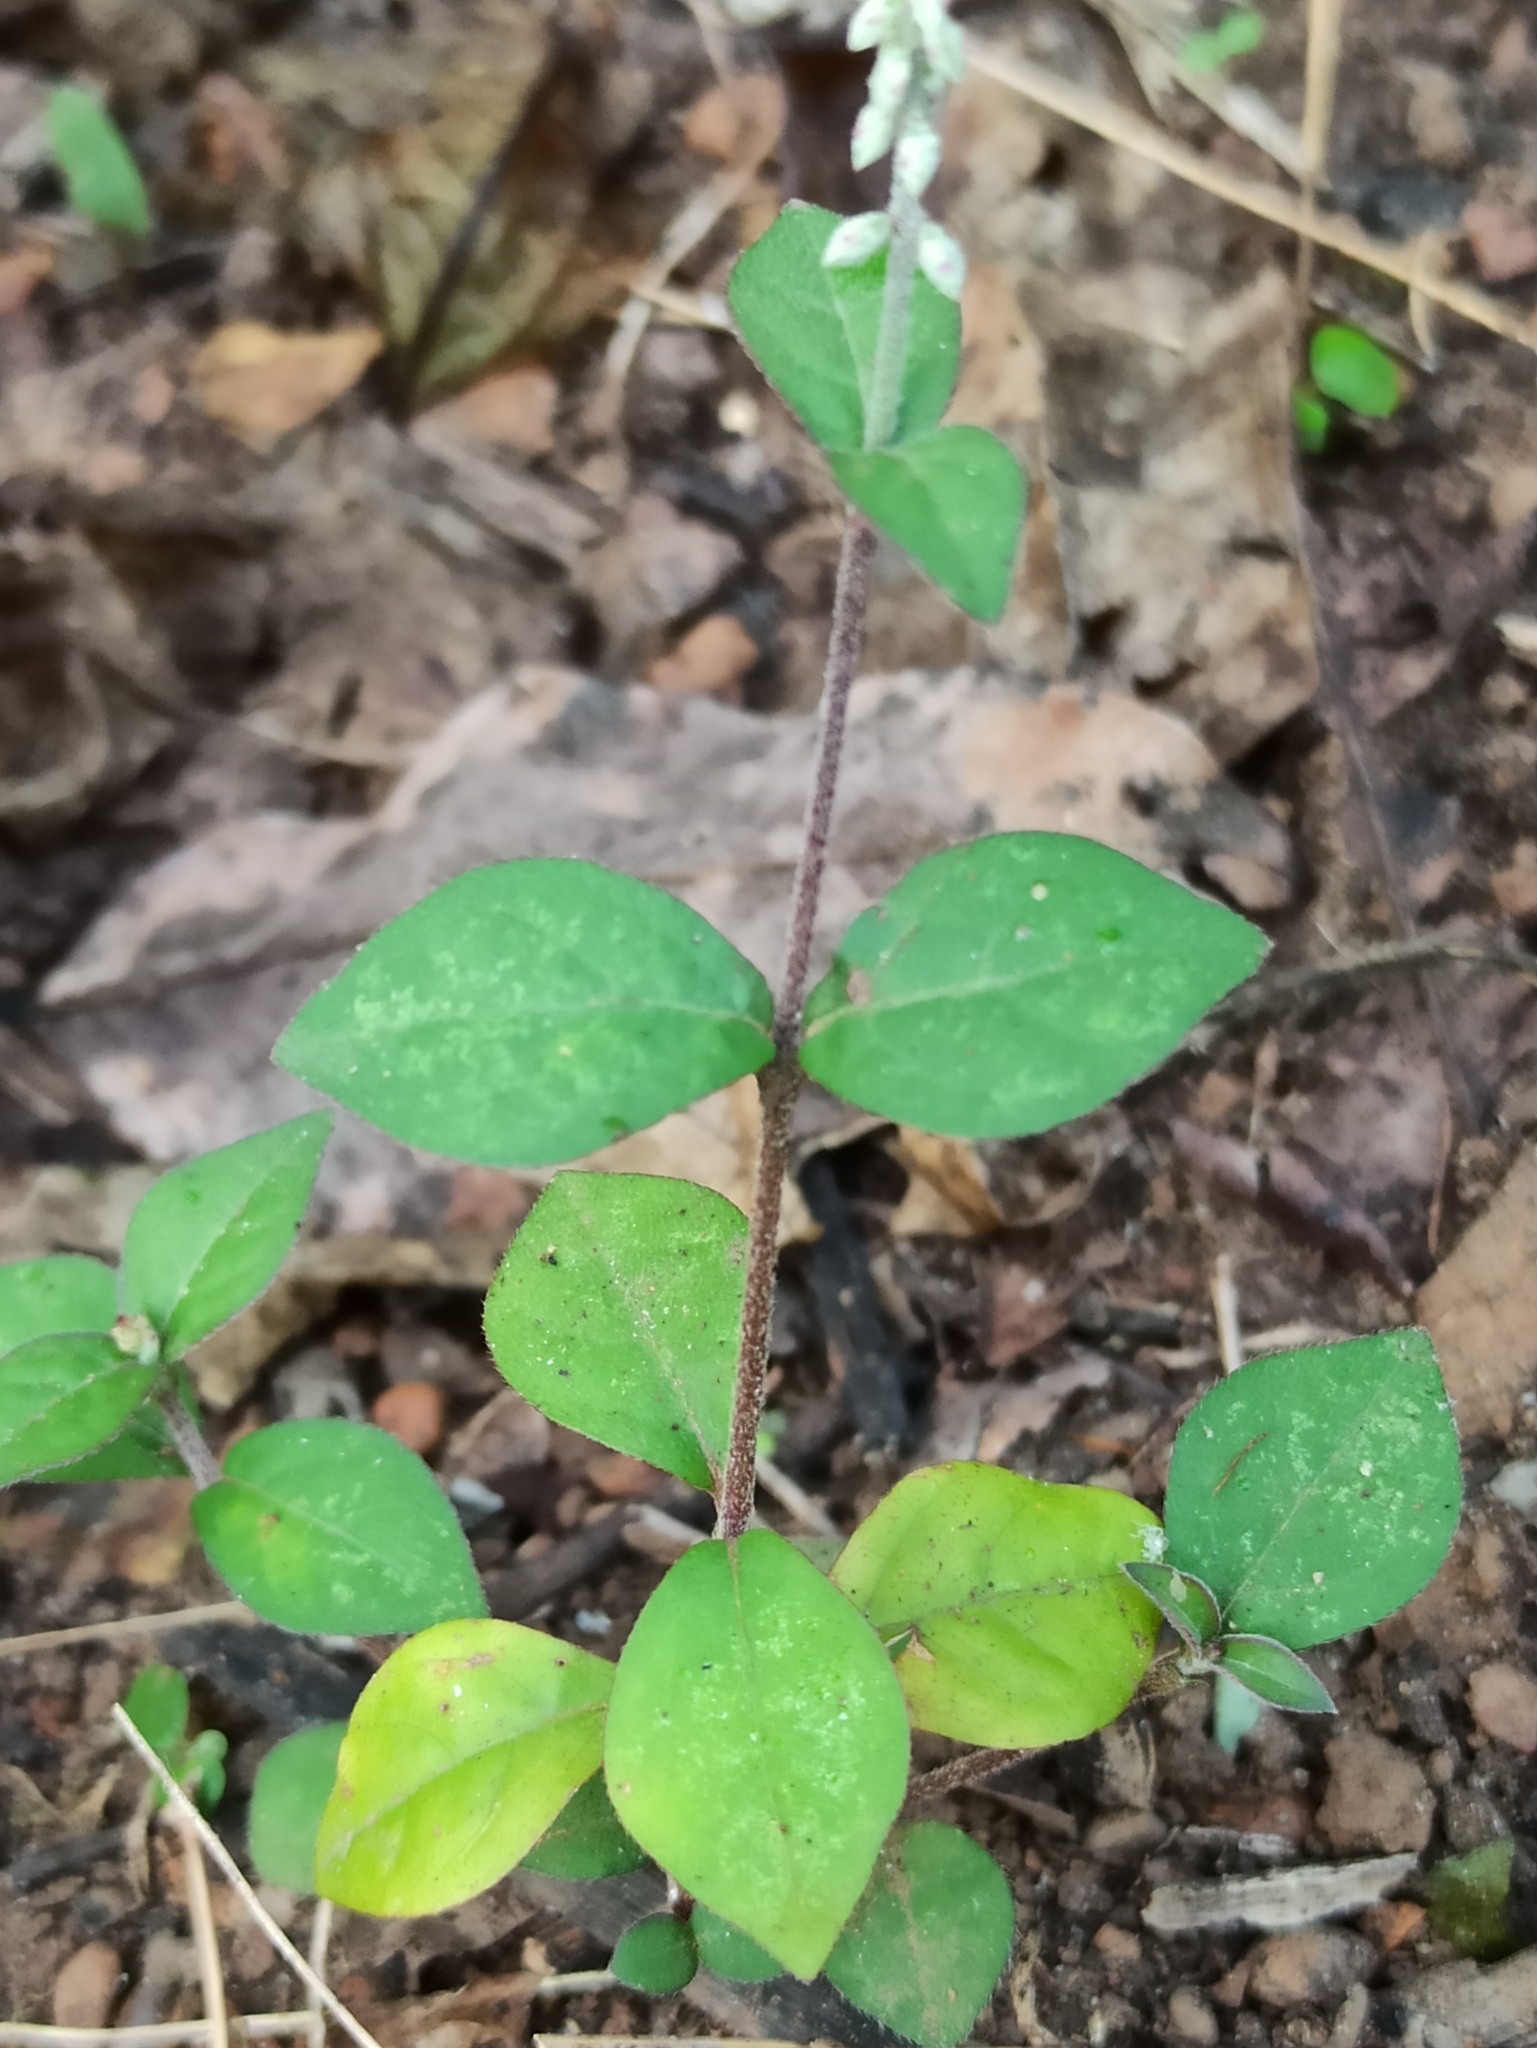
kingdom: Plantae
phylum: Tracheophyta
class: Magnoliopsida
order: Caryophyllales
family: Amaranthaceae
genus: Cyathula
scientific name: Cyathula prostrata
